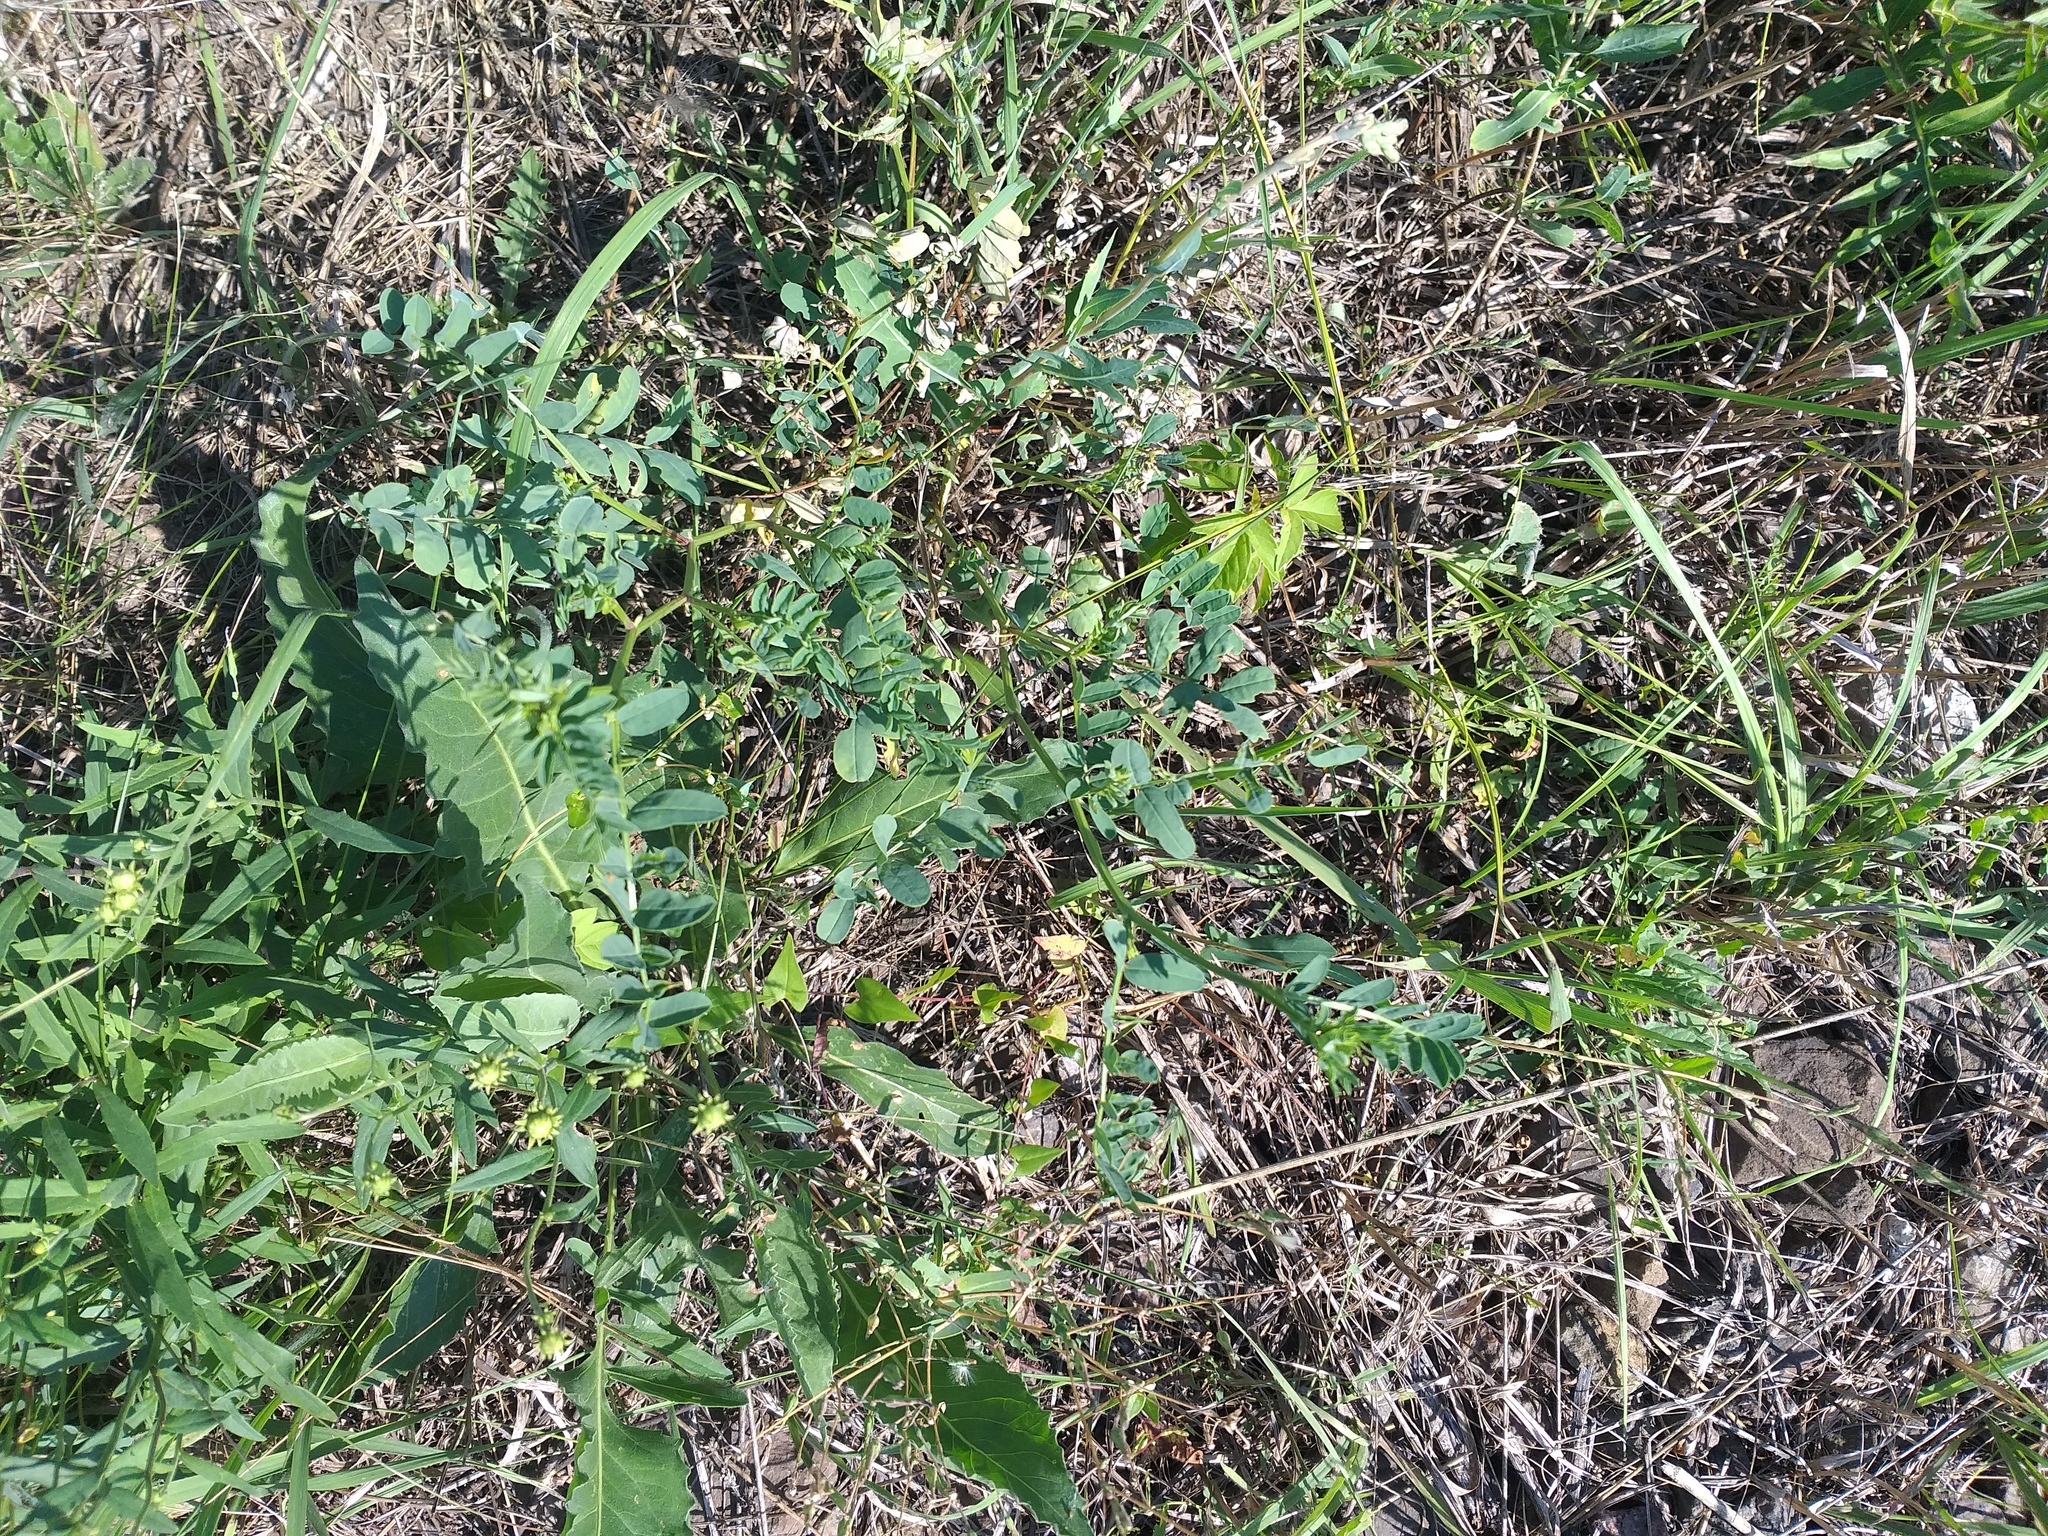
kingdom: Plantae
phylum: Tracheophyta
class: Magnoliopsida
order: Fabales
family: Fabaceae
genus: Coronilla
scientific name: Coronilla varia
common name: Crownvetch
